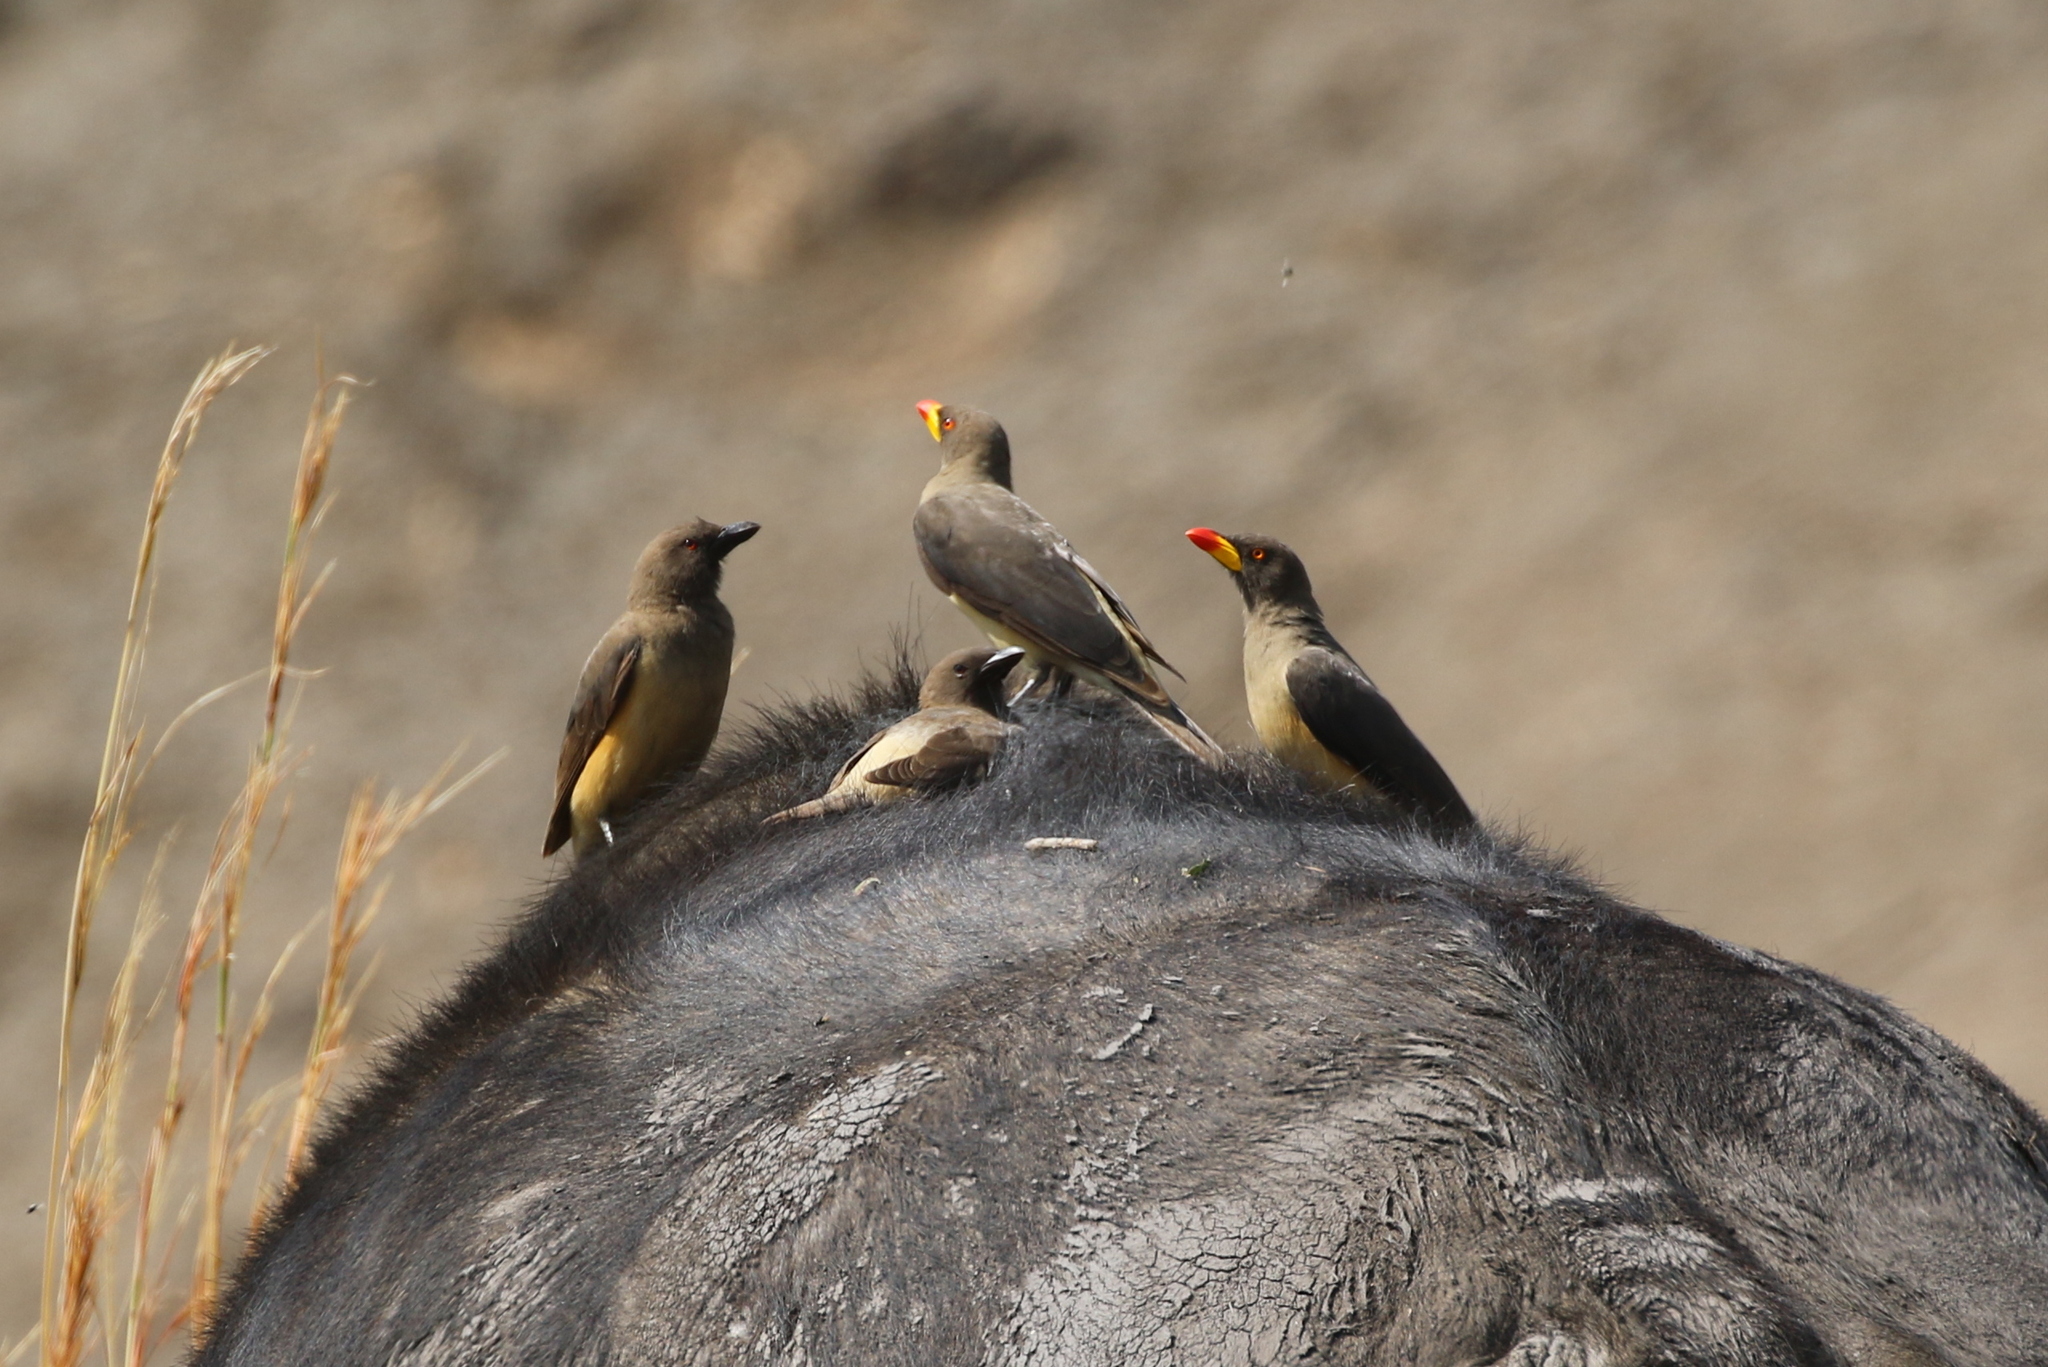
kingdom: Animalia
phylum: Chordata
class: Aves
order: Passeriformes
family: Buphagidae
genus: Buphagus
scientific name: Buphagus africanus
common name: Yellow-billed oxpecker
